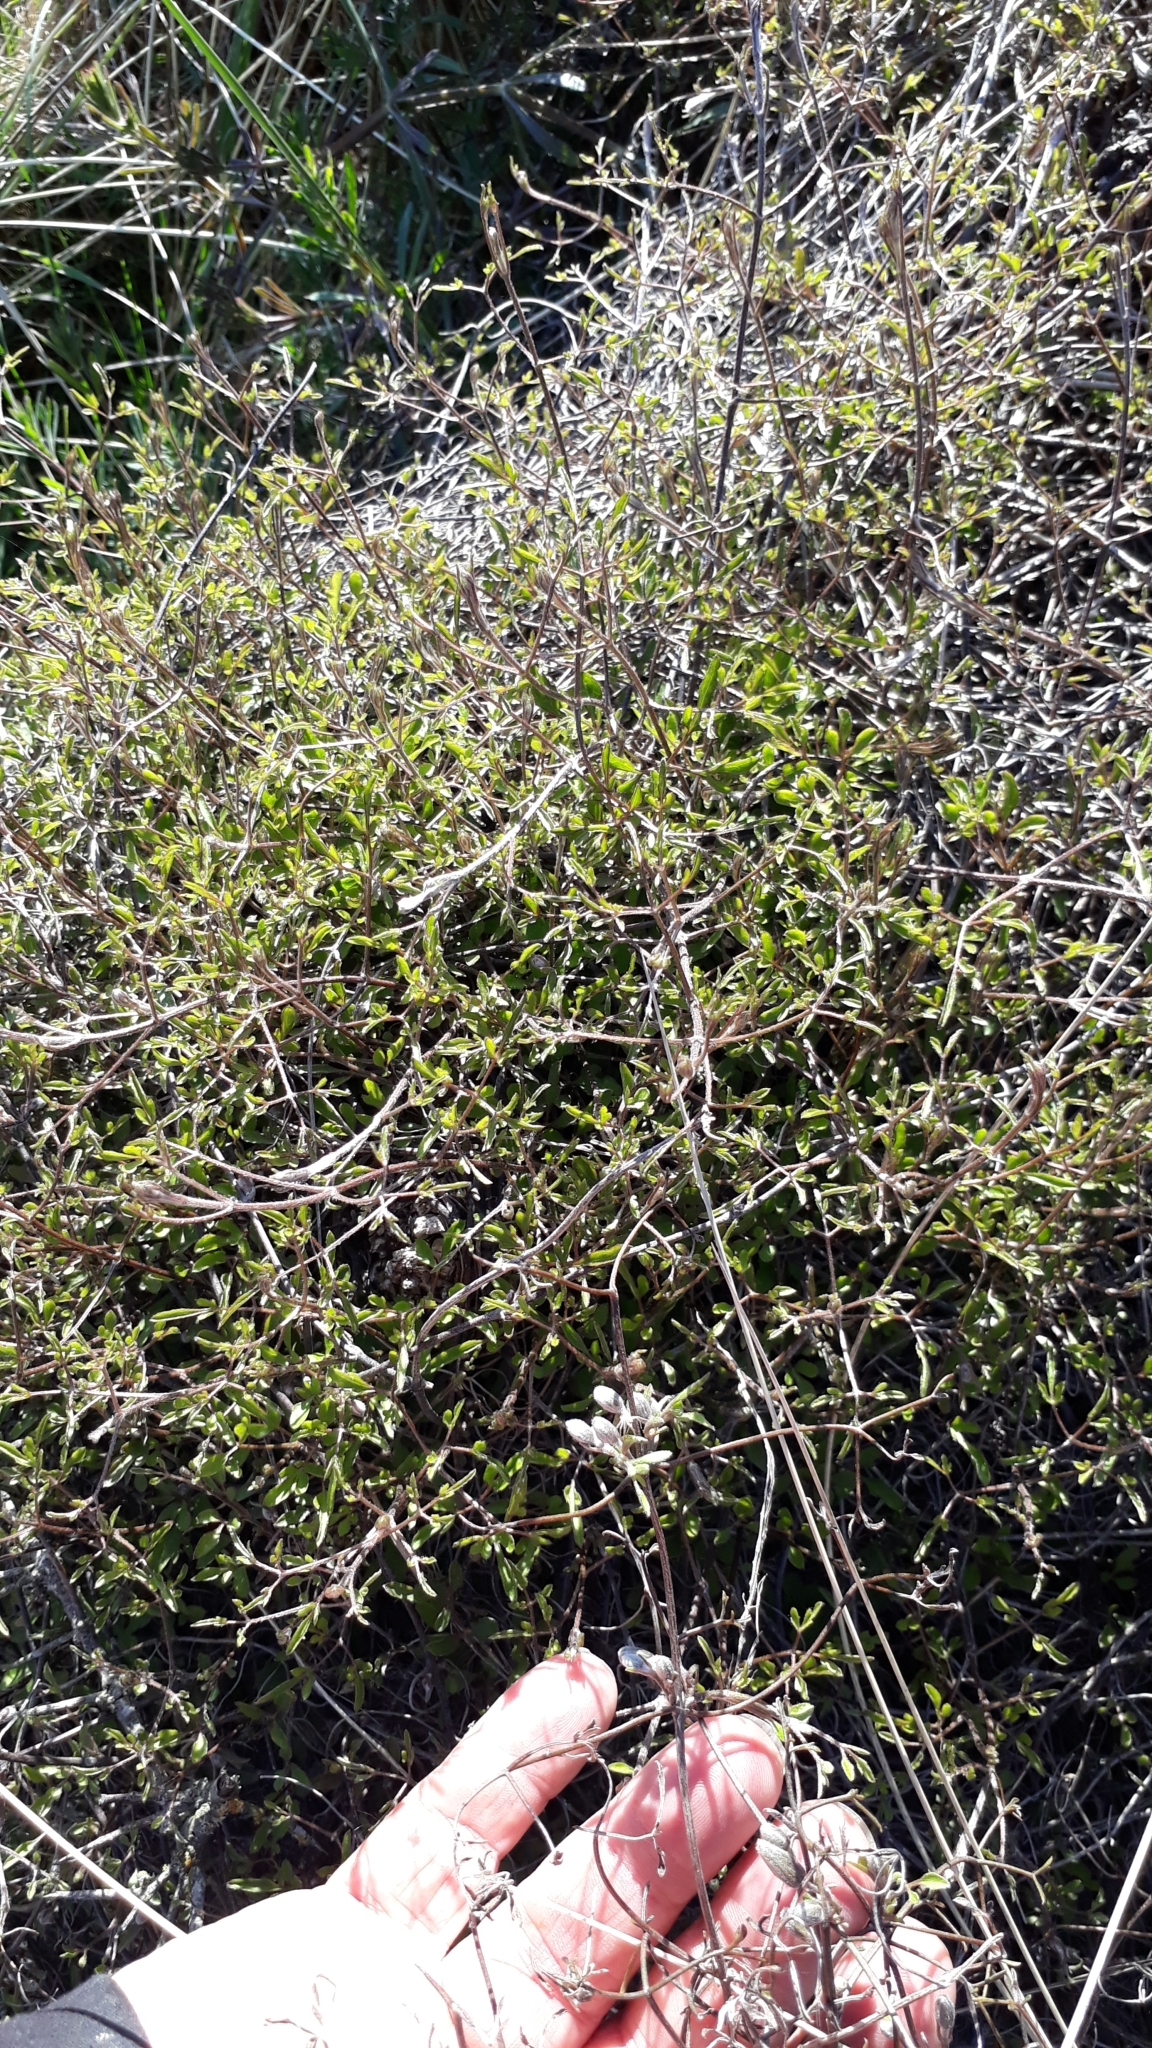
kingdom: Plantae
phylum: Tracheophyta
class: Magnoliopsida
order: Ranunculales
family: Ranunculaceae
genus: Clematis
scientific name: Clematis marata
